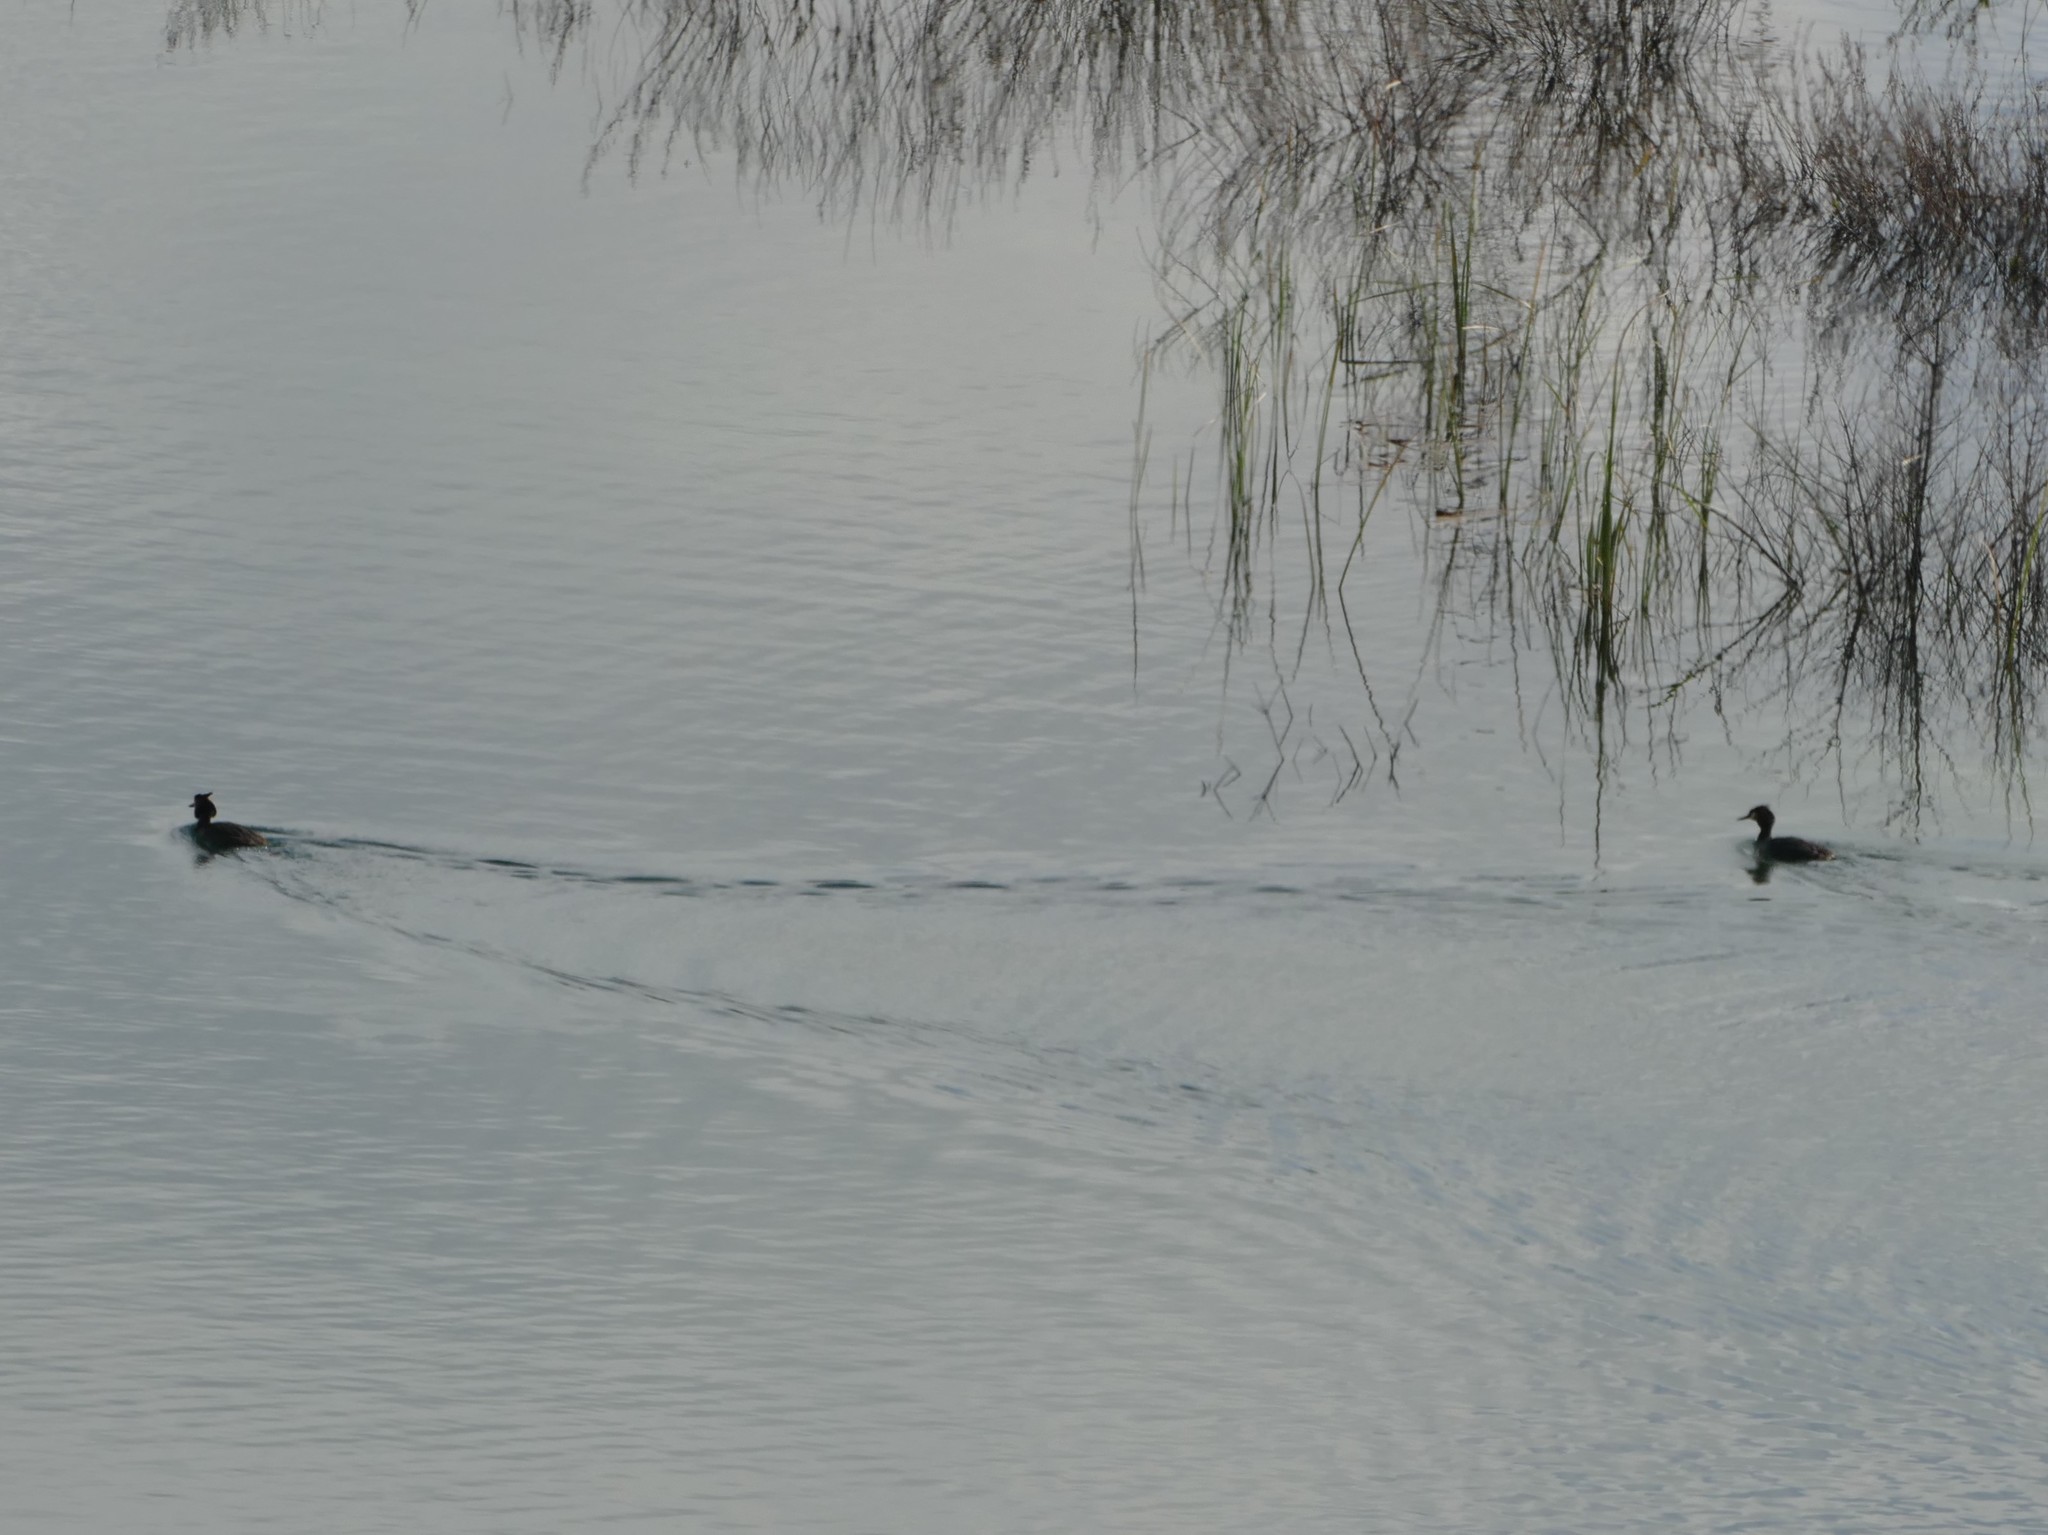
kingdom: Animalia
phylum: Chordata
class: Aves
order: Podicipediformes
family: Podicipedidae
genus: Podiceps
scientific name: Podiceps cristatus
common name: Great crested grebe
